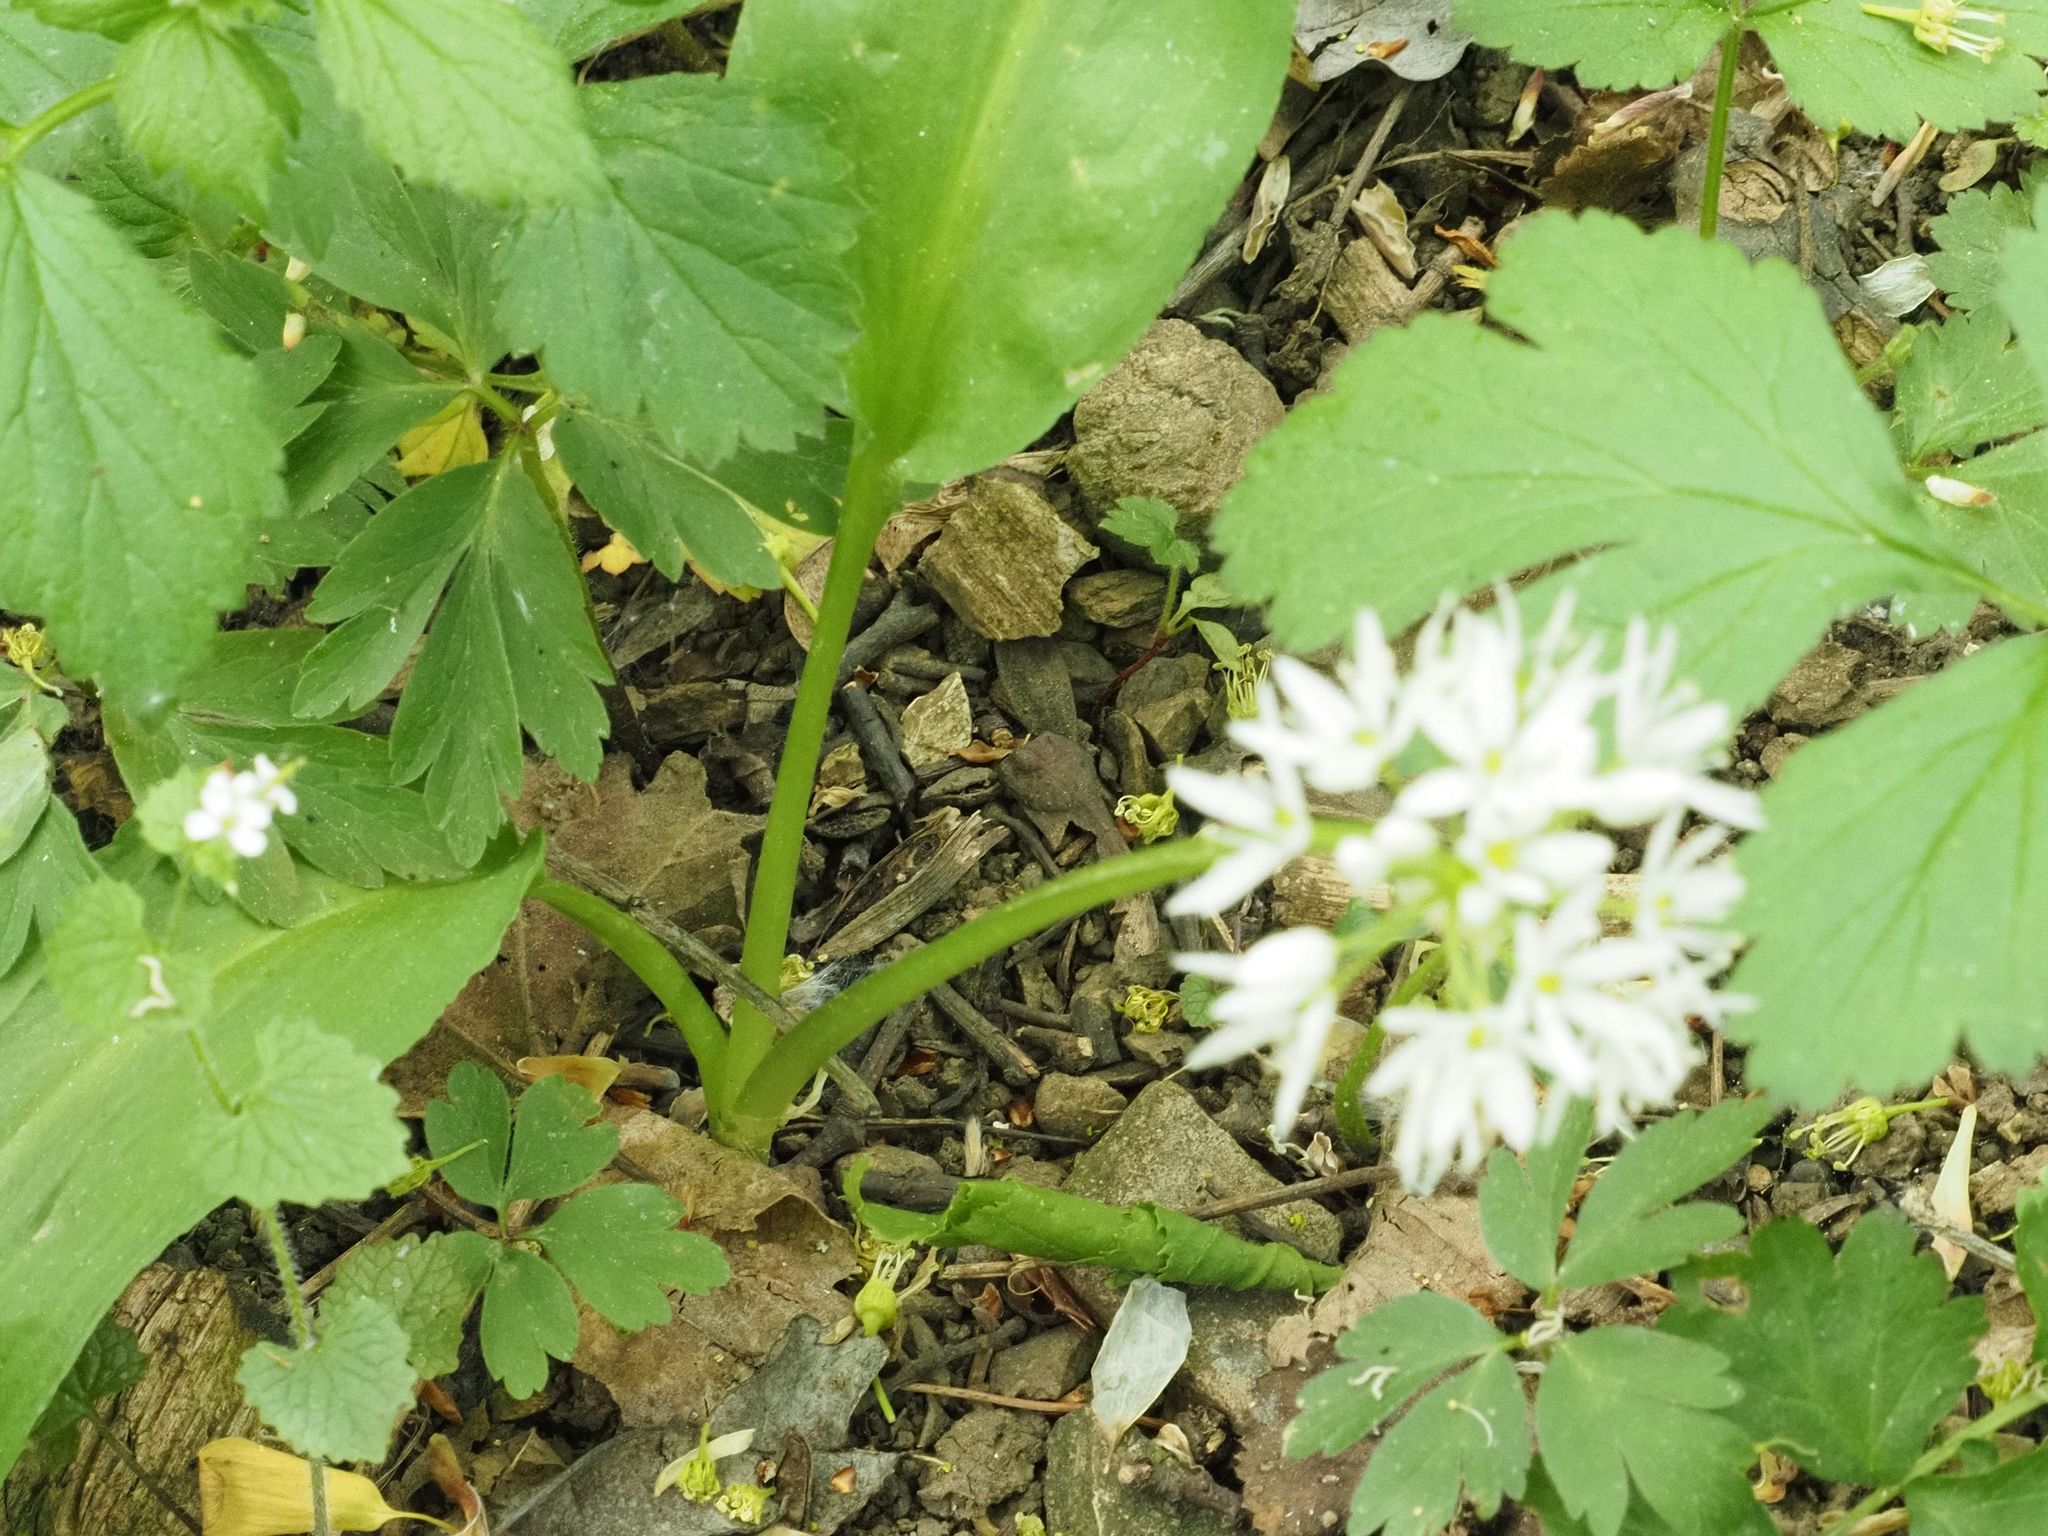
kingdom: Plantae
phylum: Tracheophyta
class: Liliopsida
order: Asparagales
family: Amaryllidaceae
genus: Allium
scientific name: Allium ursinum
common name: Ramsons
